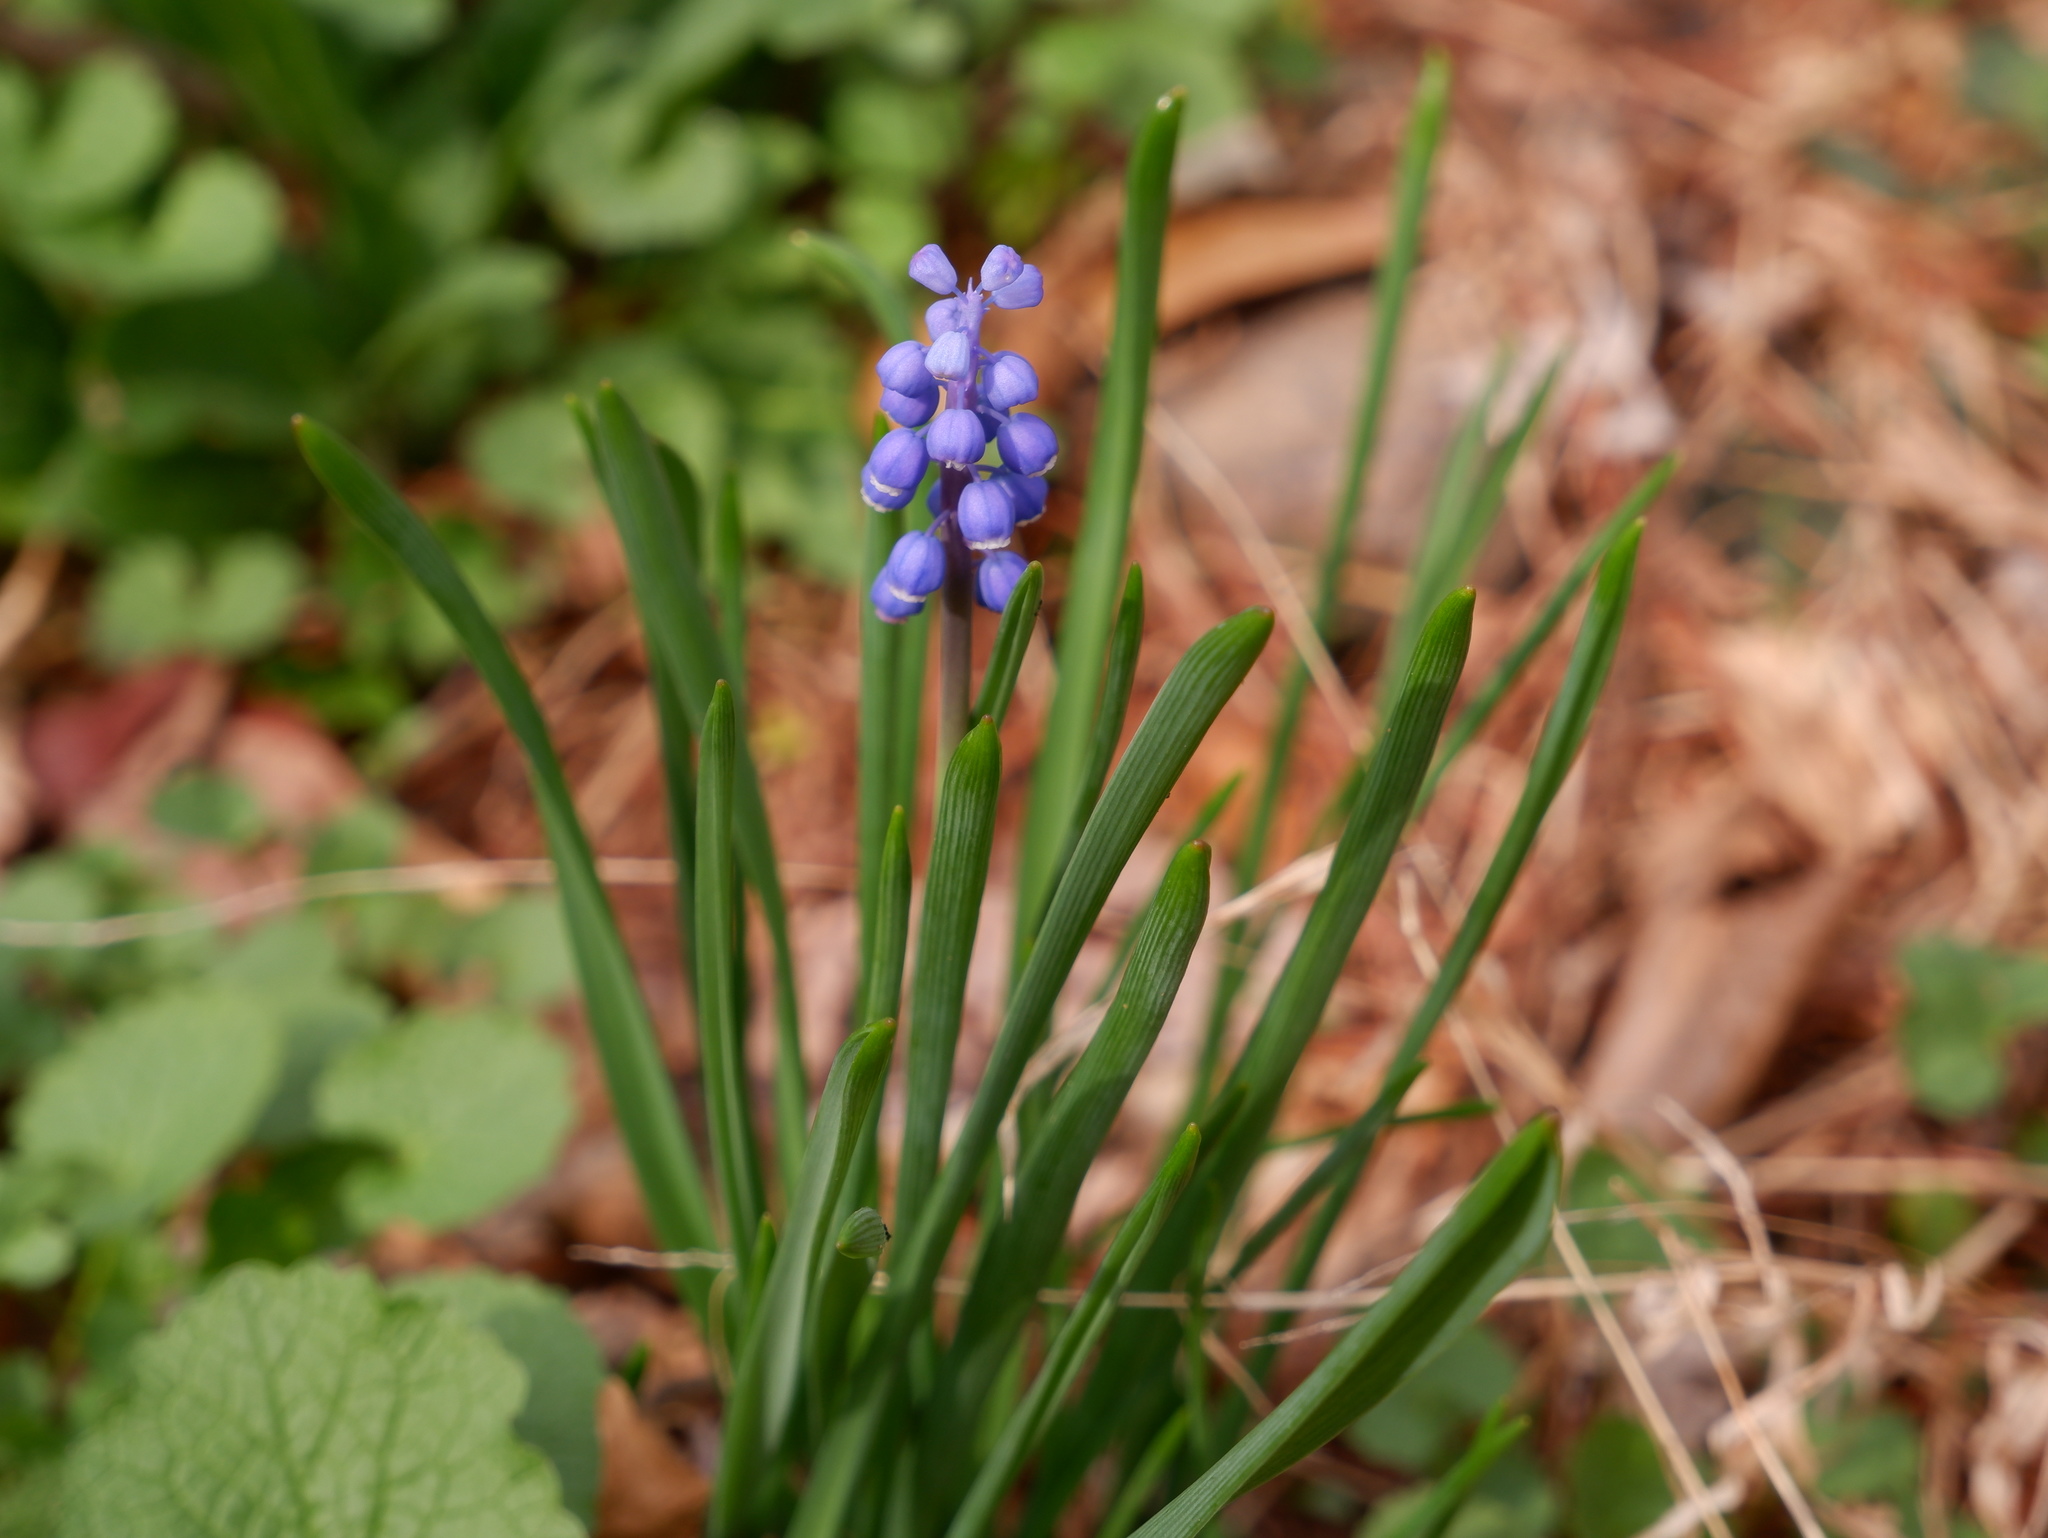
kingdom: Plantae
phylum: Tracheophyta
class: Liliopsida
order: Asparagales
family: Asparagaceae
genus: Muscari
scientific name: Muscari botryoides
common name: Compact grape-hyacinth
